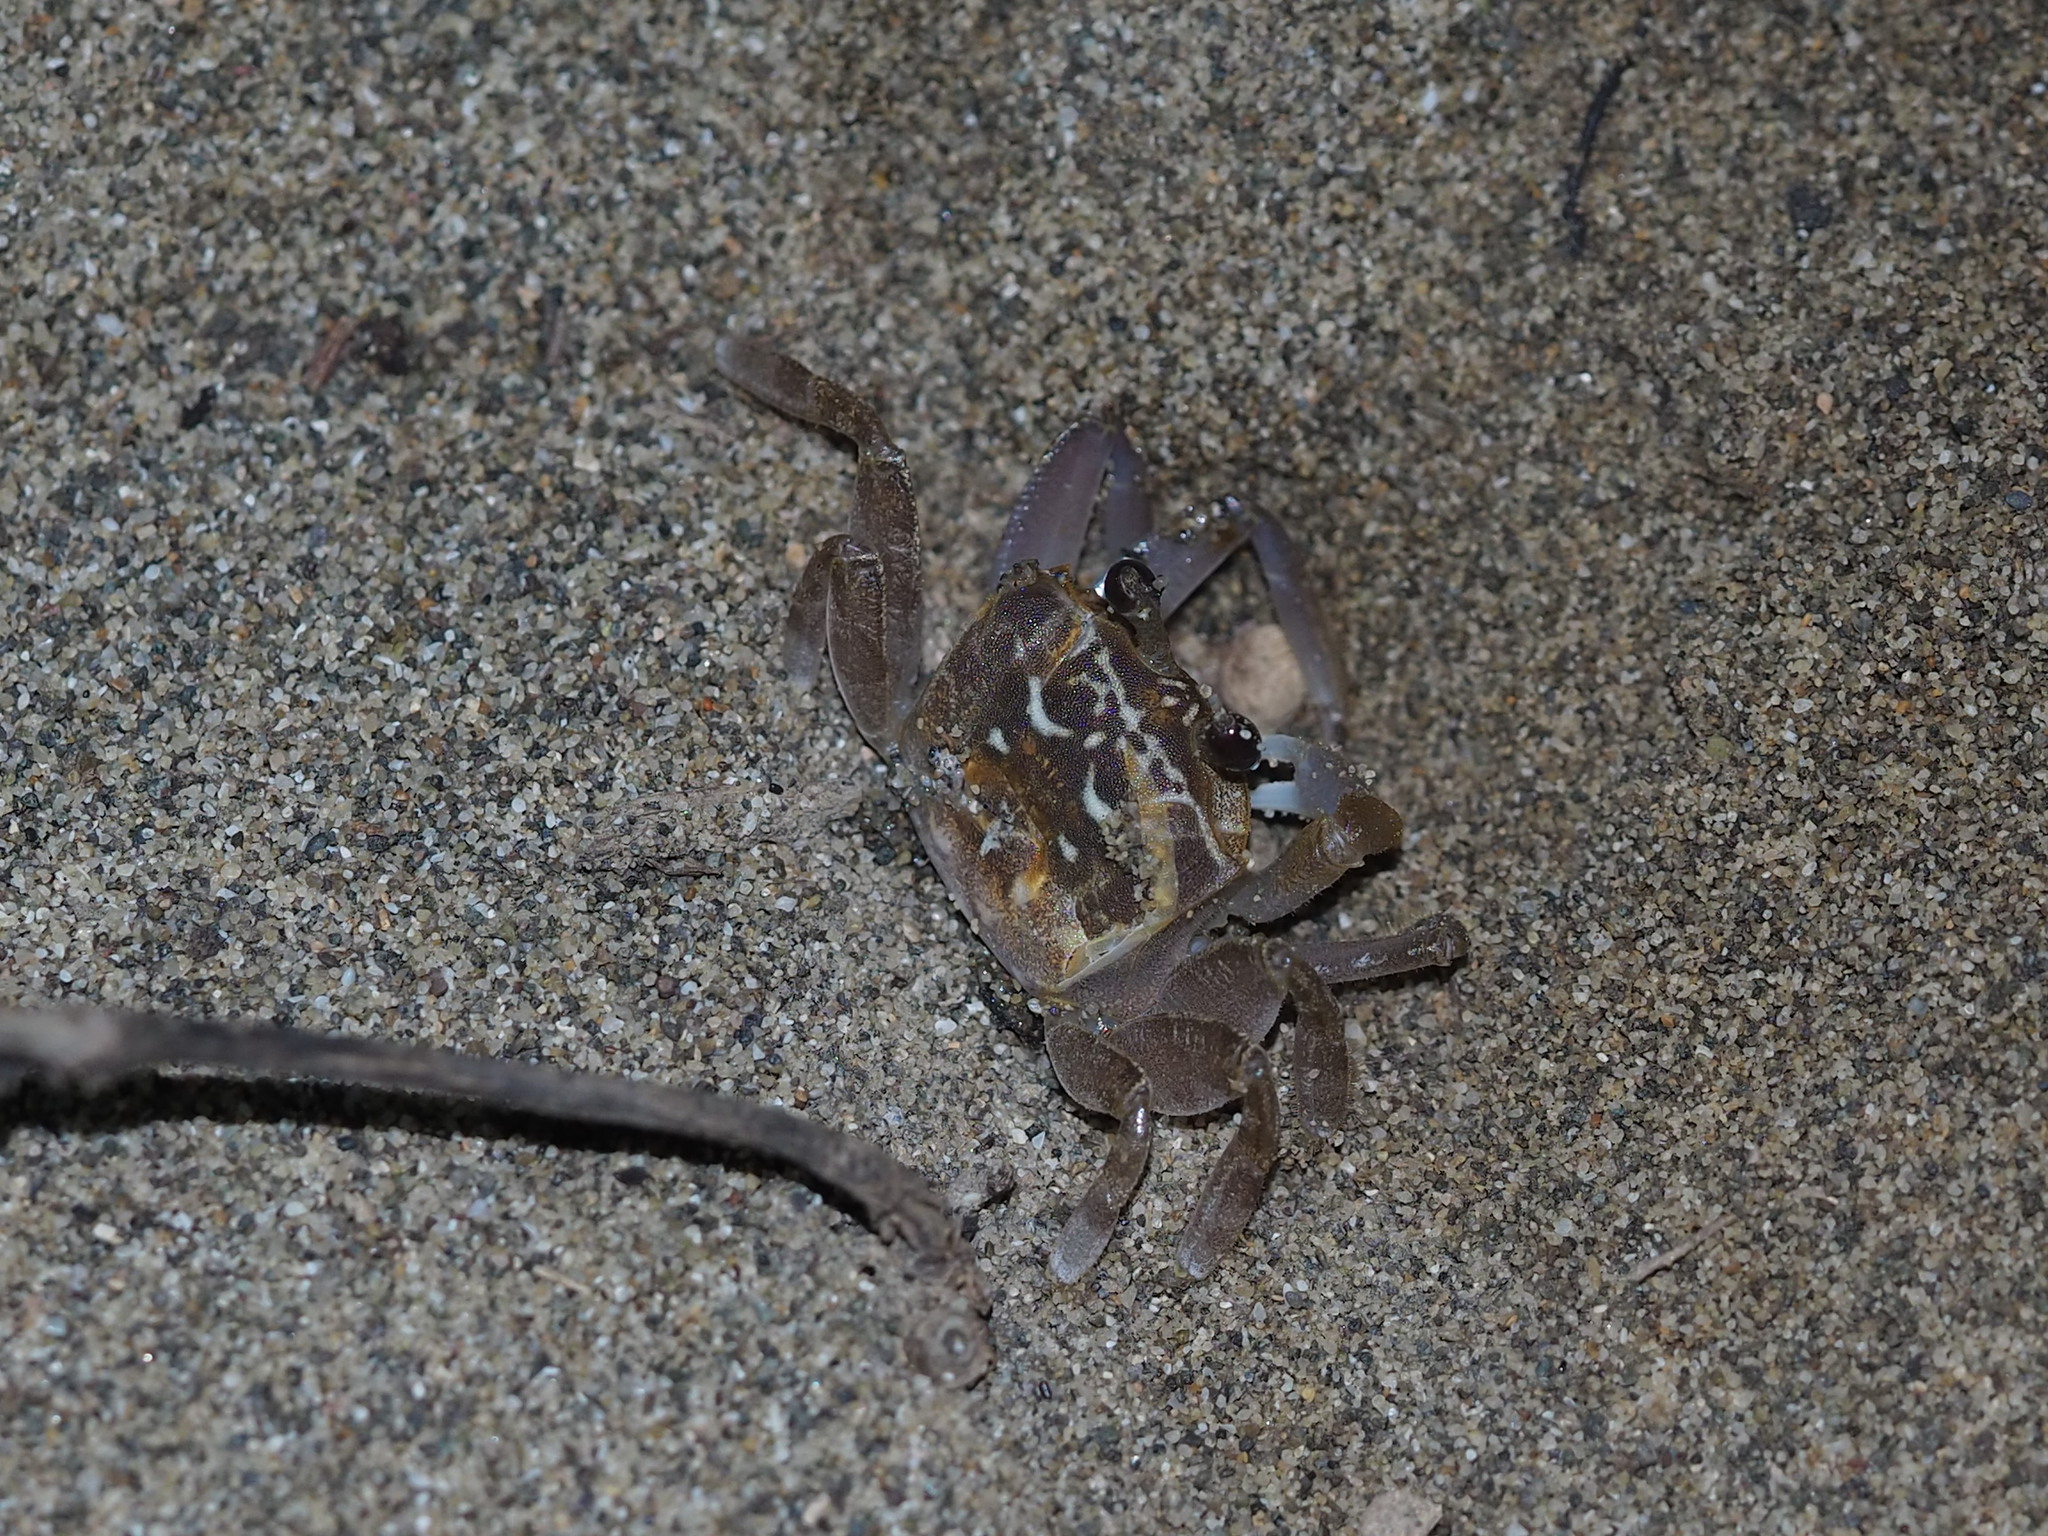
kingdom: Animalia
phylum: Arthropoda
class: Malacostraca
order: Decapoda
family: Ocypodidae
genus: Ocypode
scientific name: Ocypode sinensis
